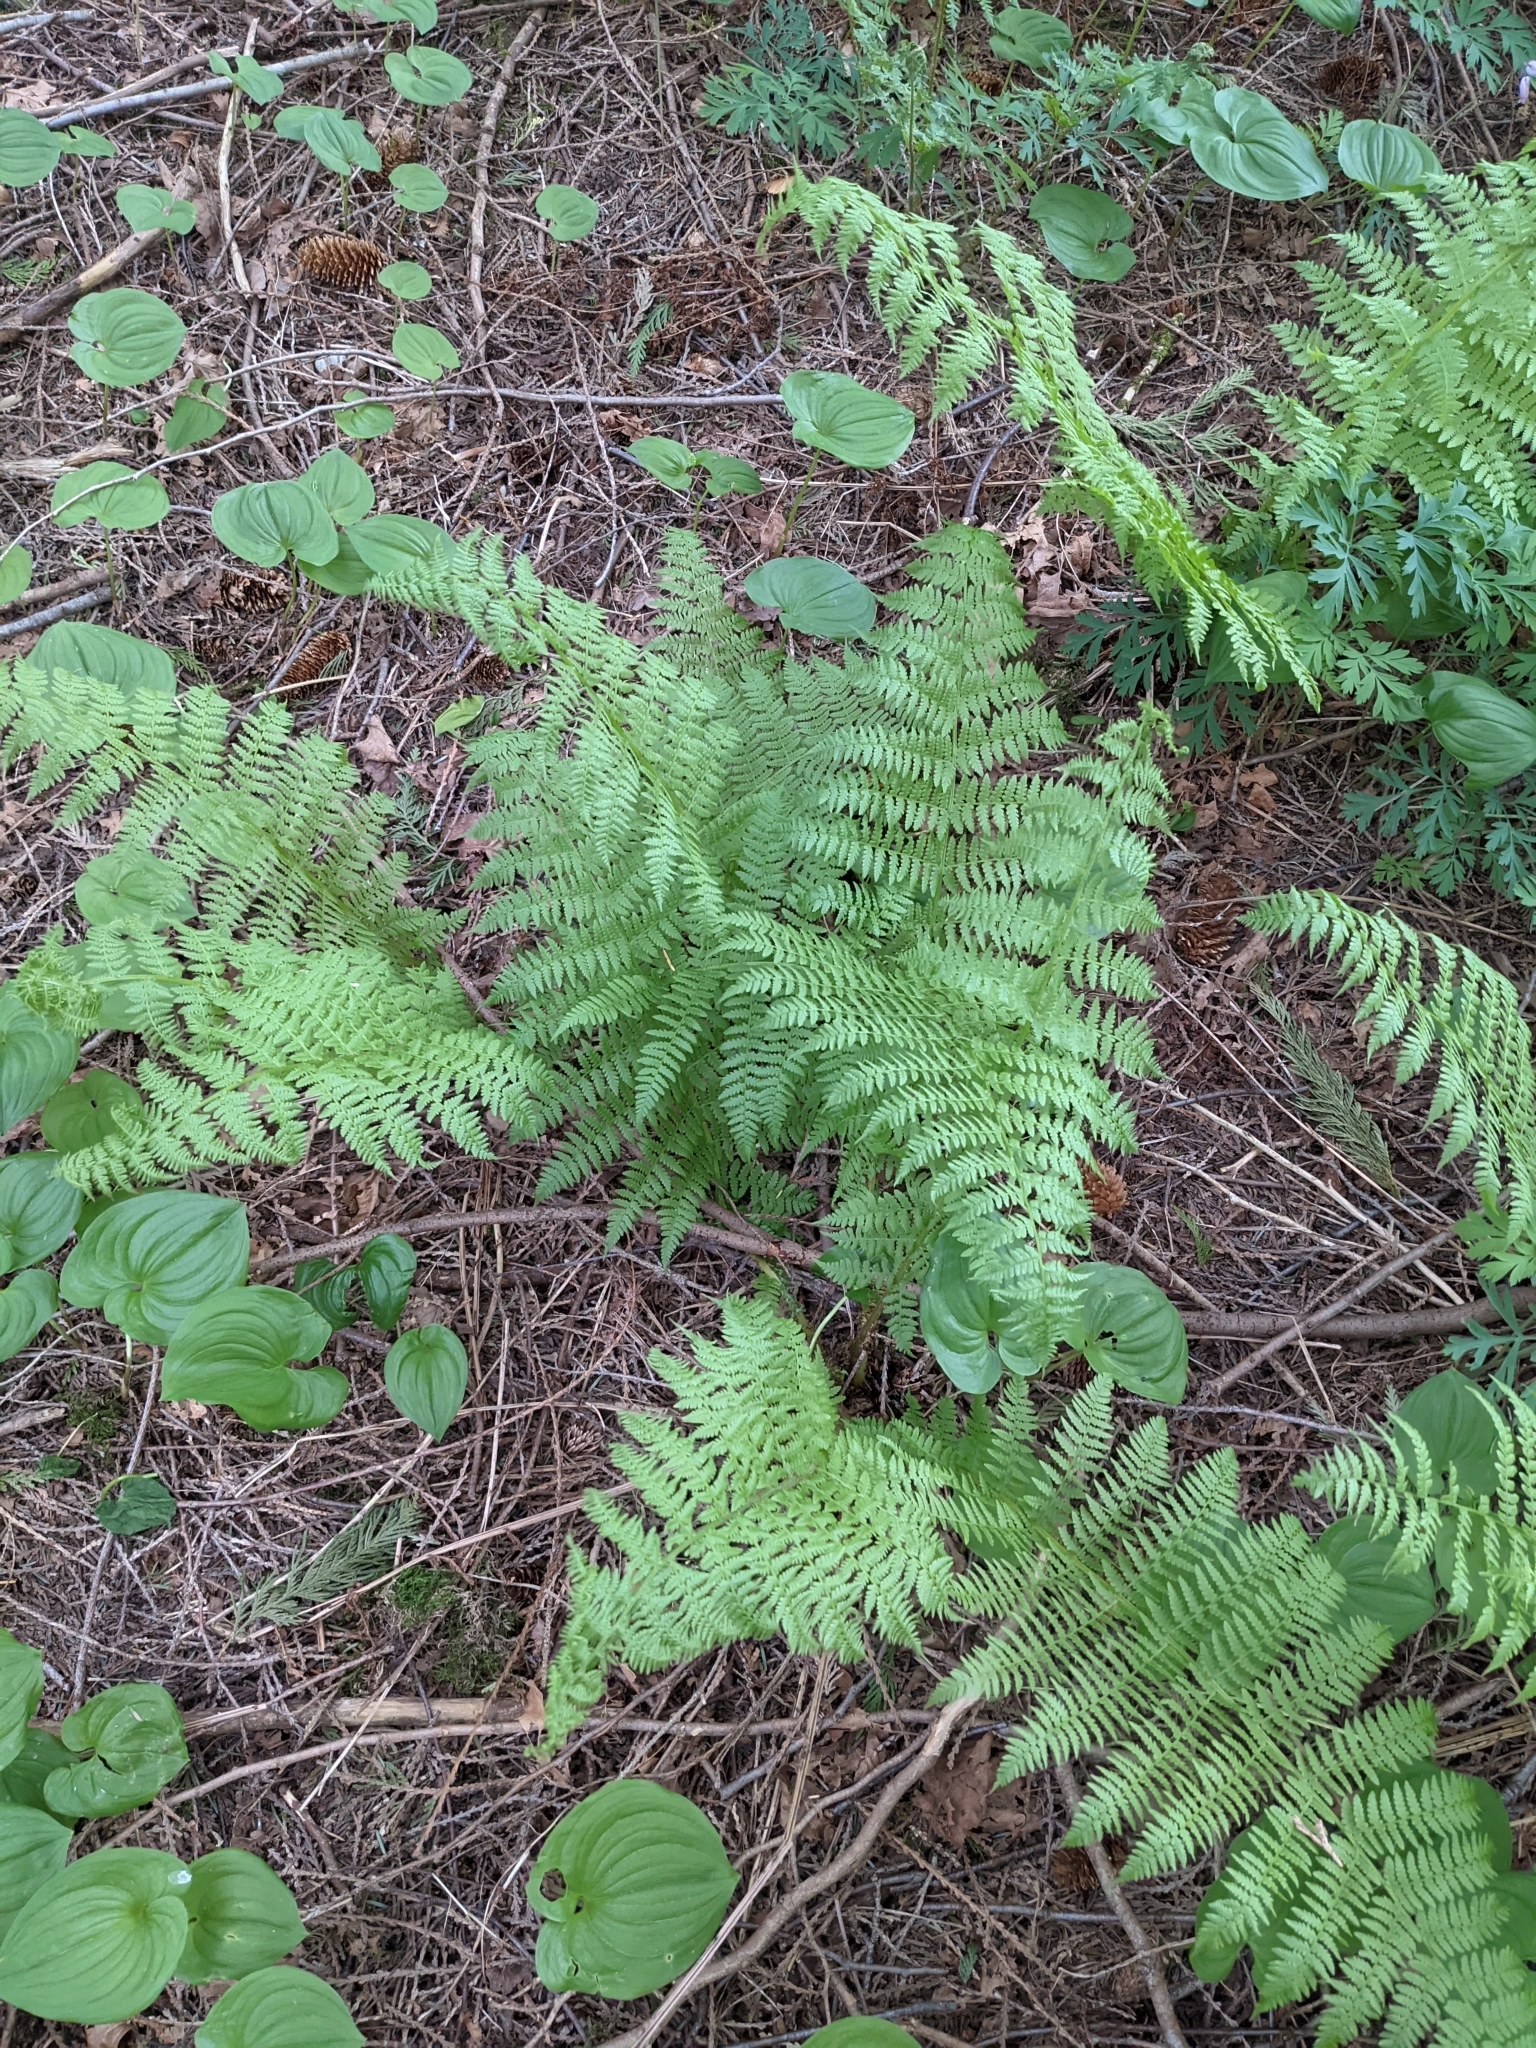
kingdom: Plantae
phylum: Tracheophyta
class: Polypodiopsida
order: Polypodiales
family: Athyriaceae
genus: Athyrium
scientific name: Athyrium filix-femina
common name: Lady fern
